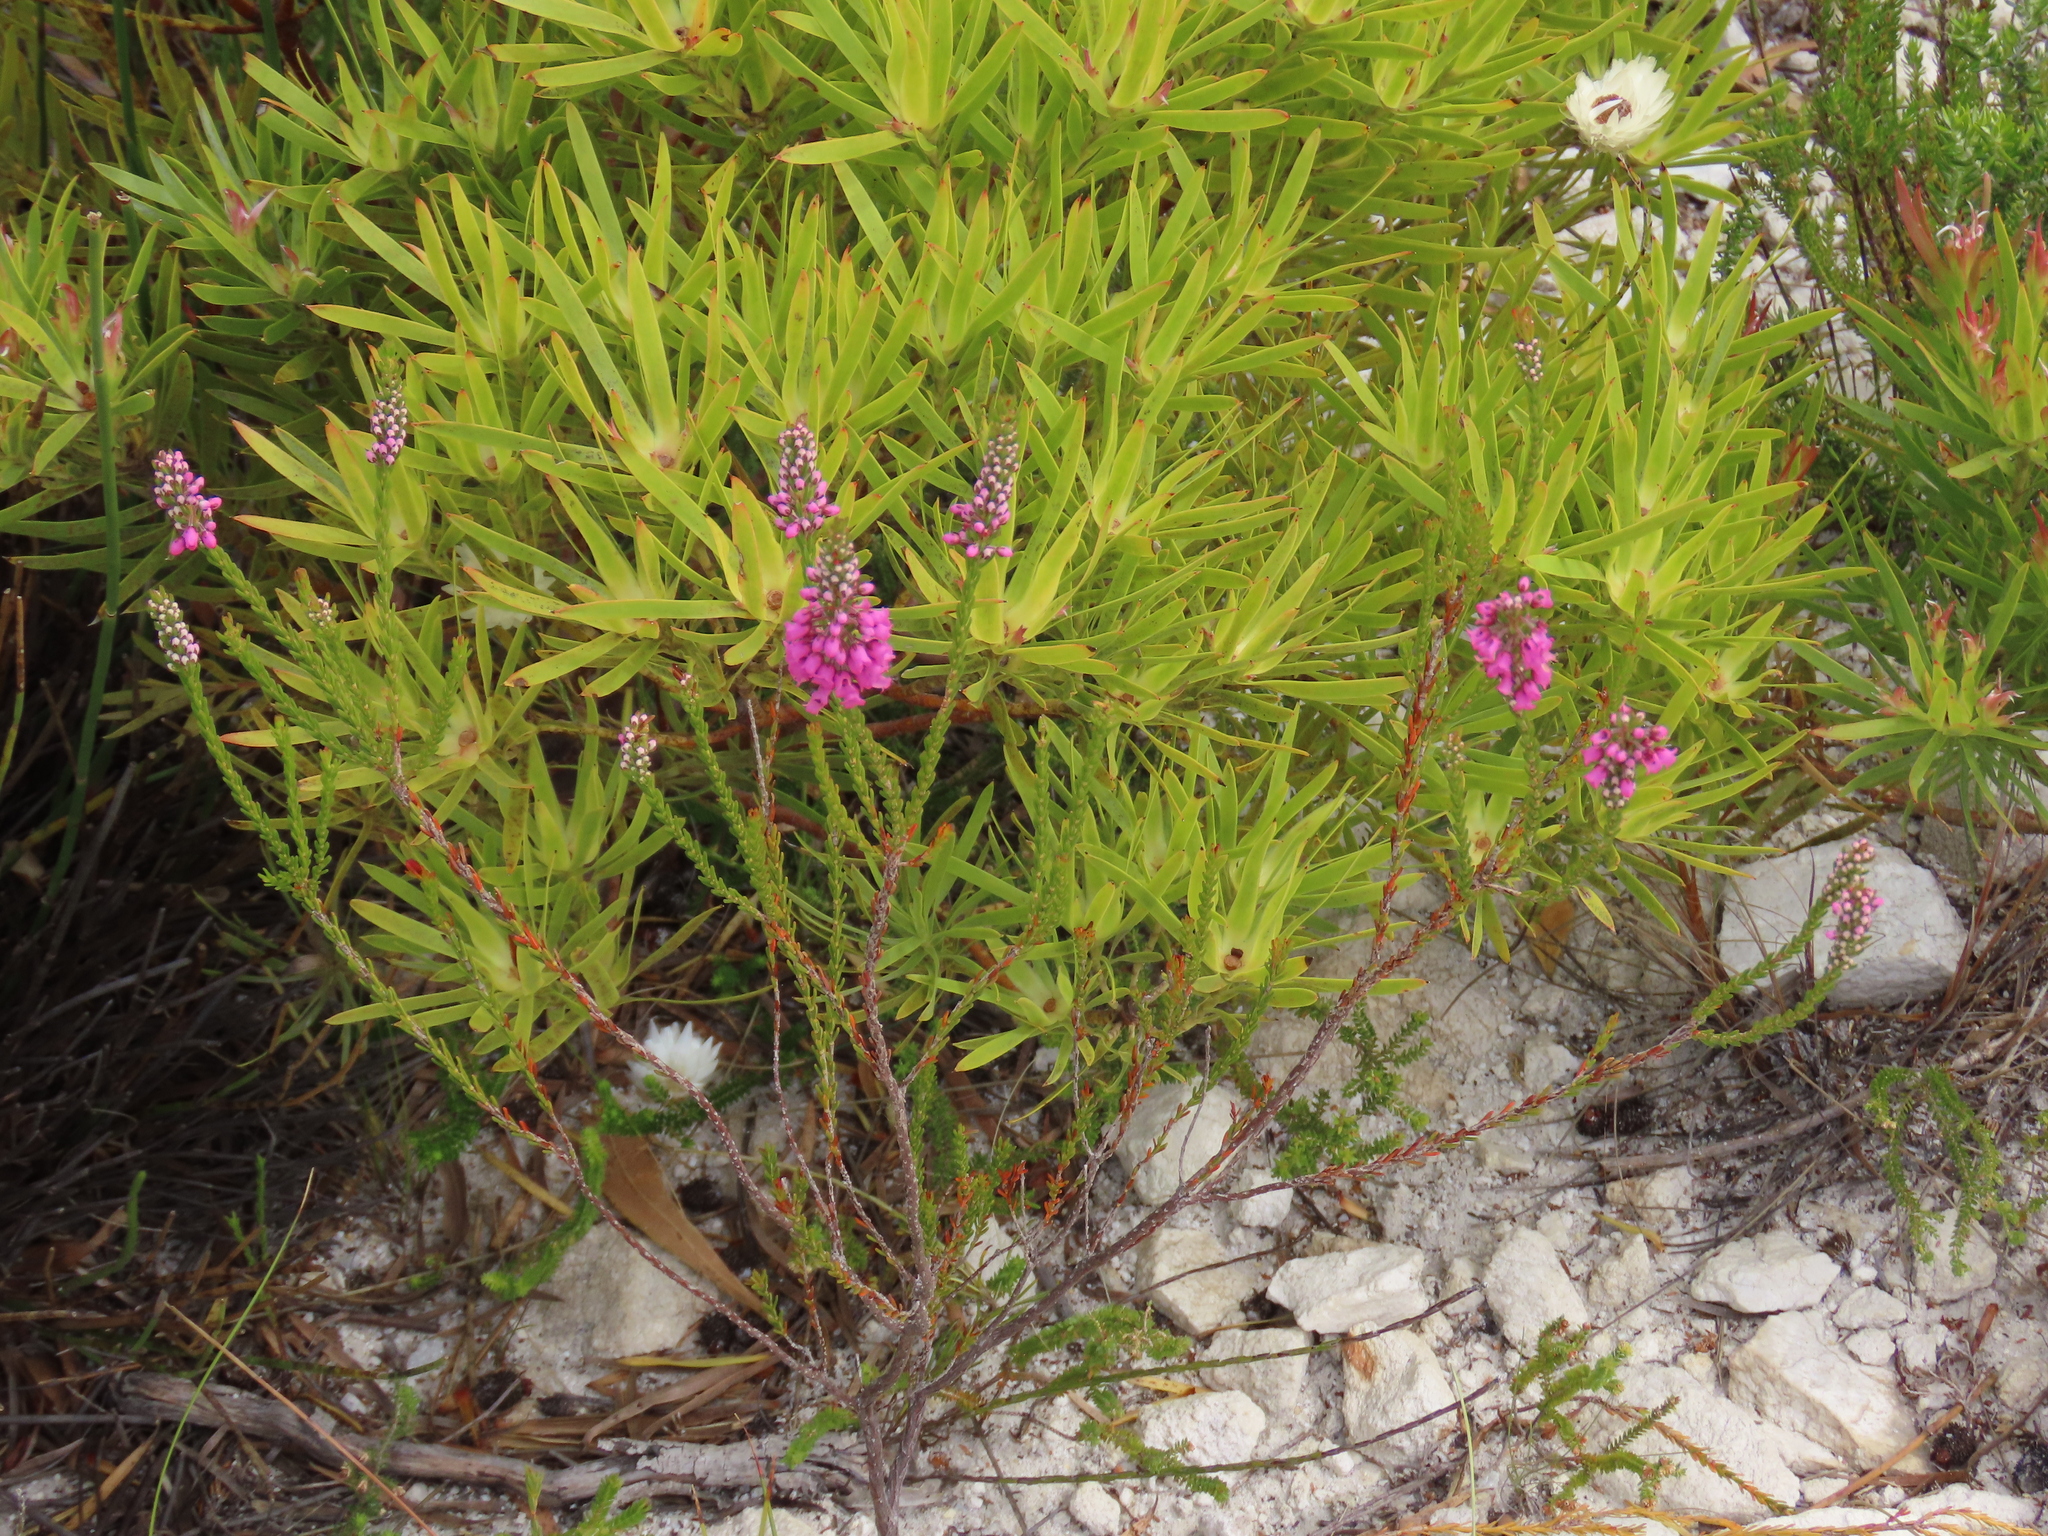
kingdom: Plantae
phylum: Tracheophyta
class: Magnoliopsida
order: Ericales
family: Ericaceae
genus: Erica
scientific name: Erica pulchella
